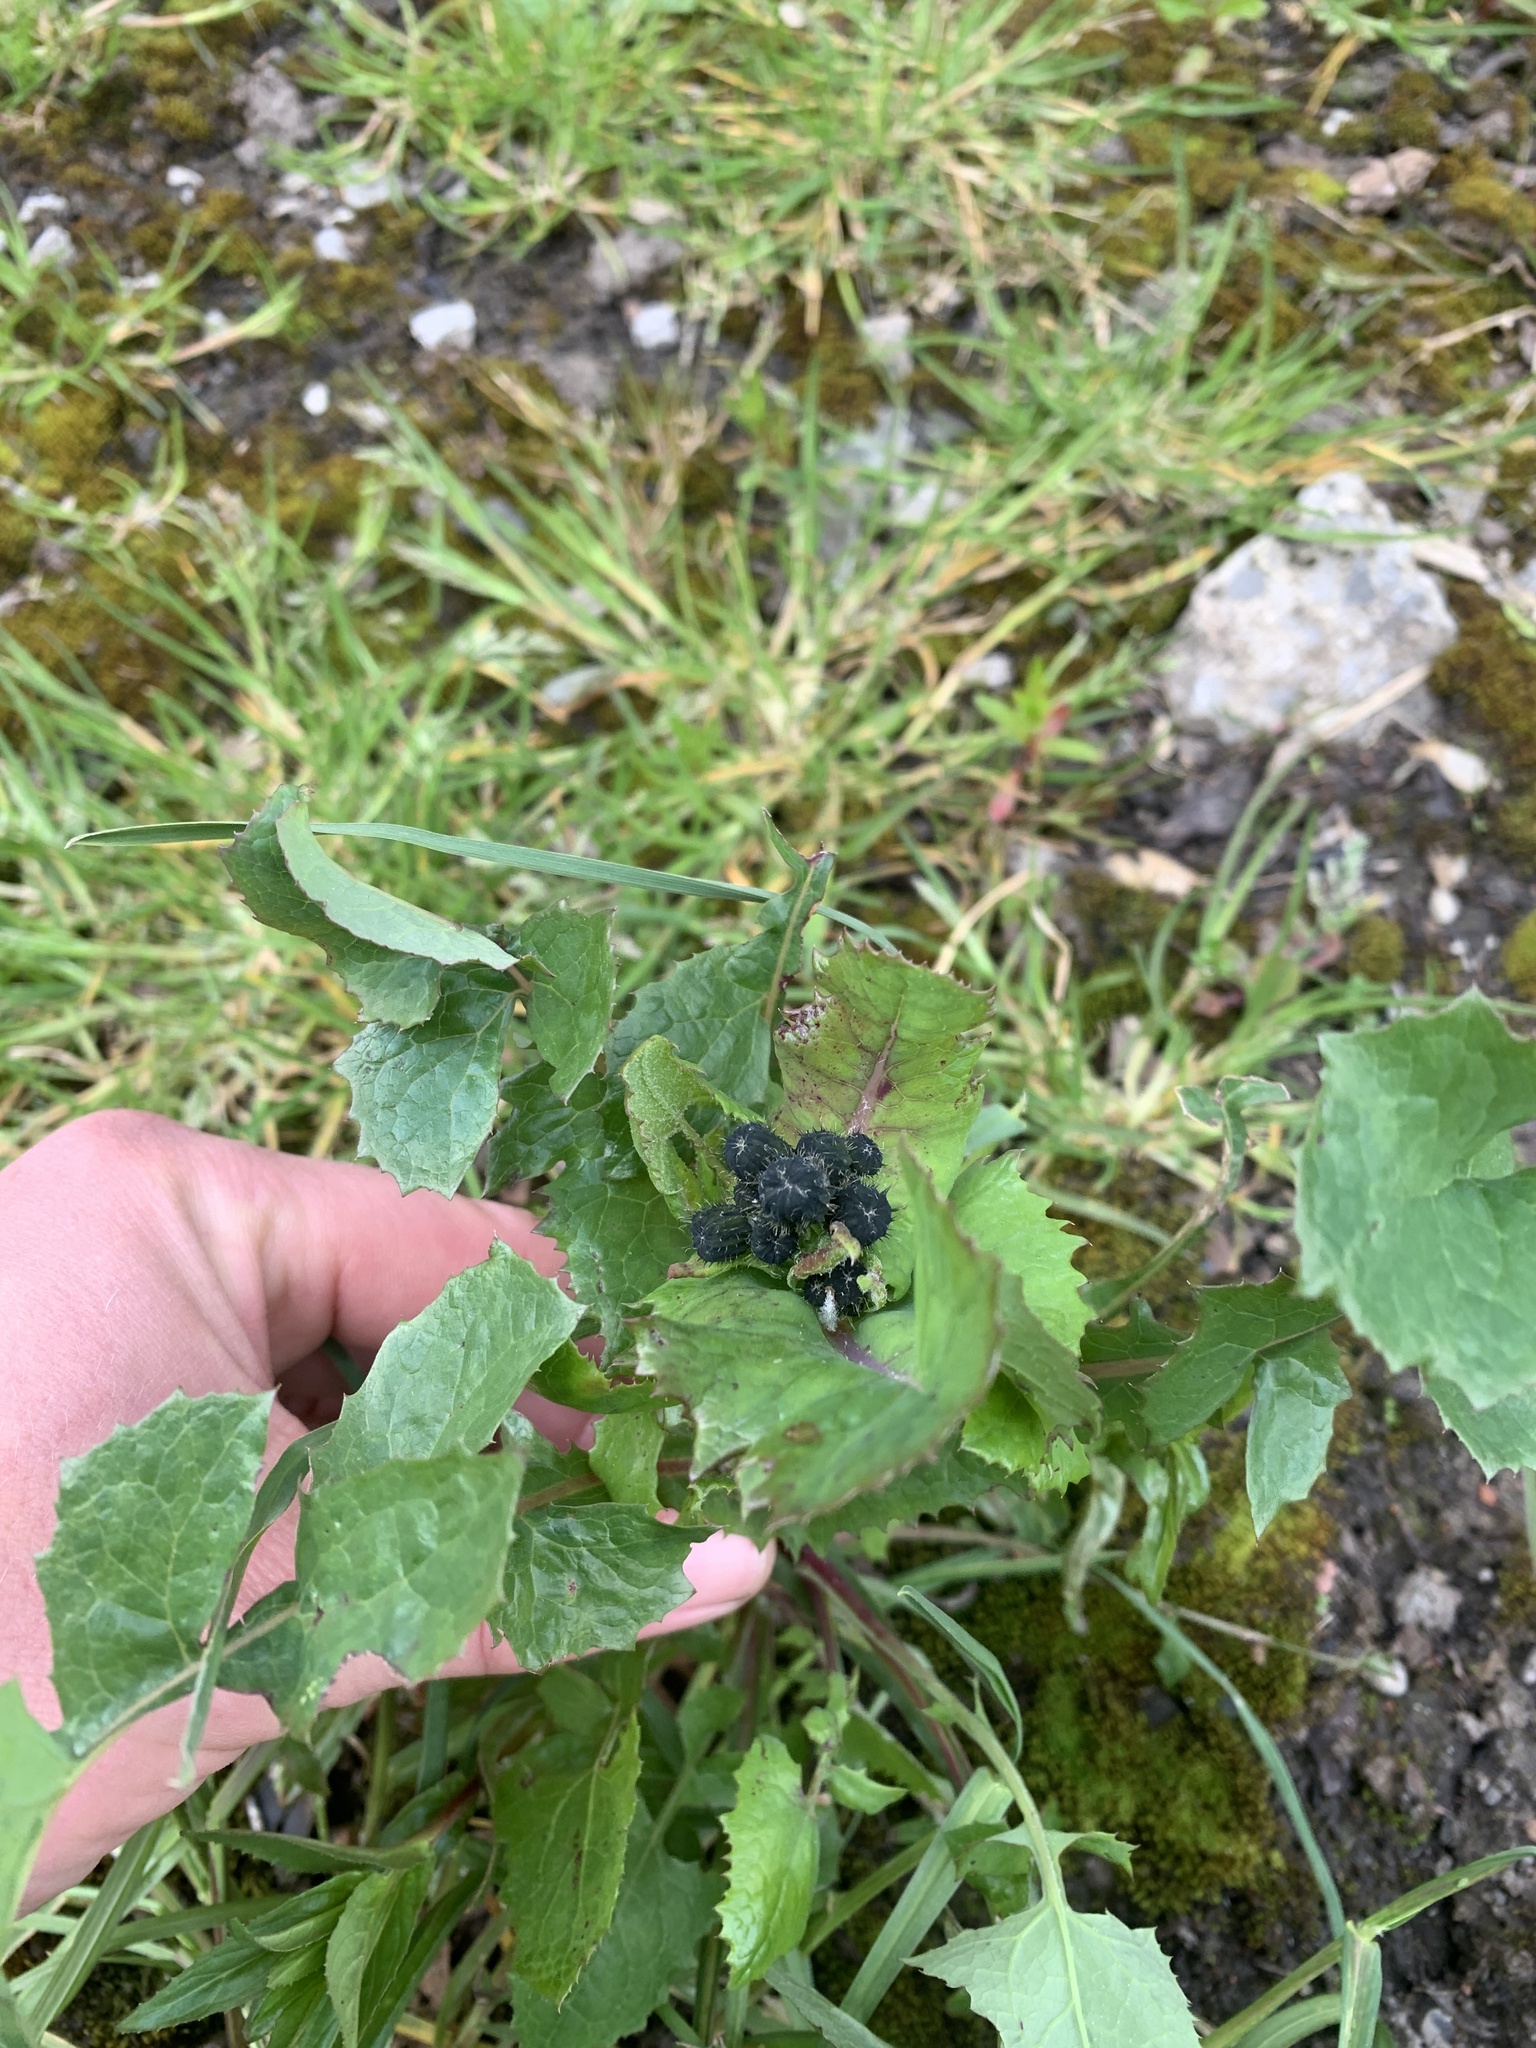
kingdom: Plantae
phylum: Tracheophyta
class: Magnoliopsida
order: Asterales
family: Asteraceae
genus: Sonchus
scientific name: Sonchus oleraceus
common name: Common sowthistle
